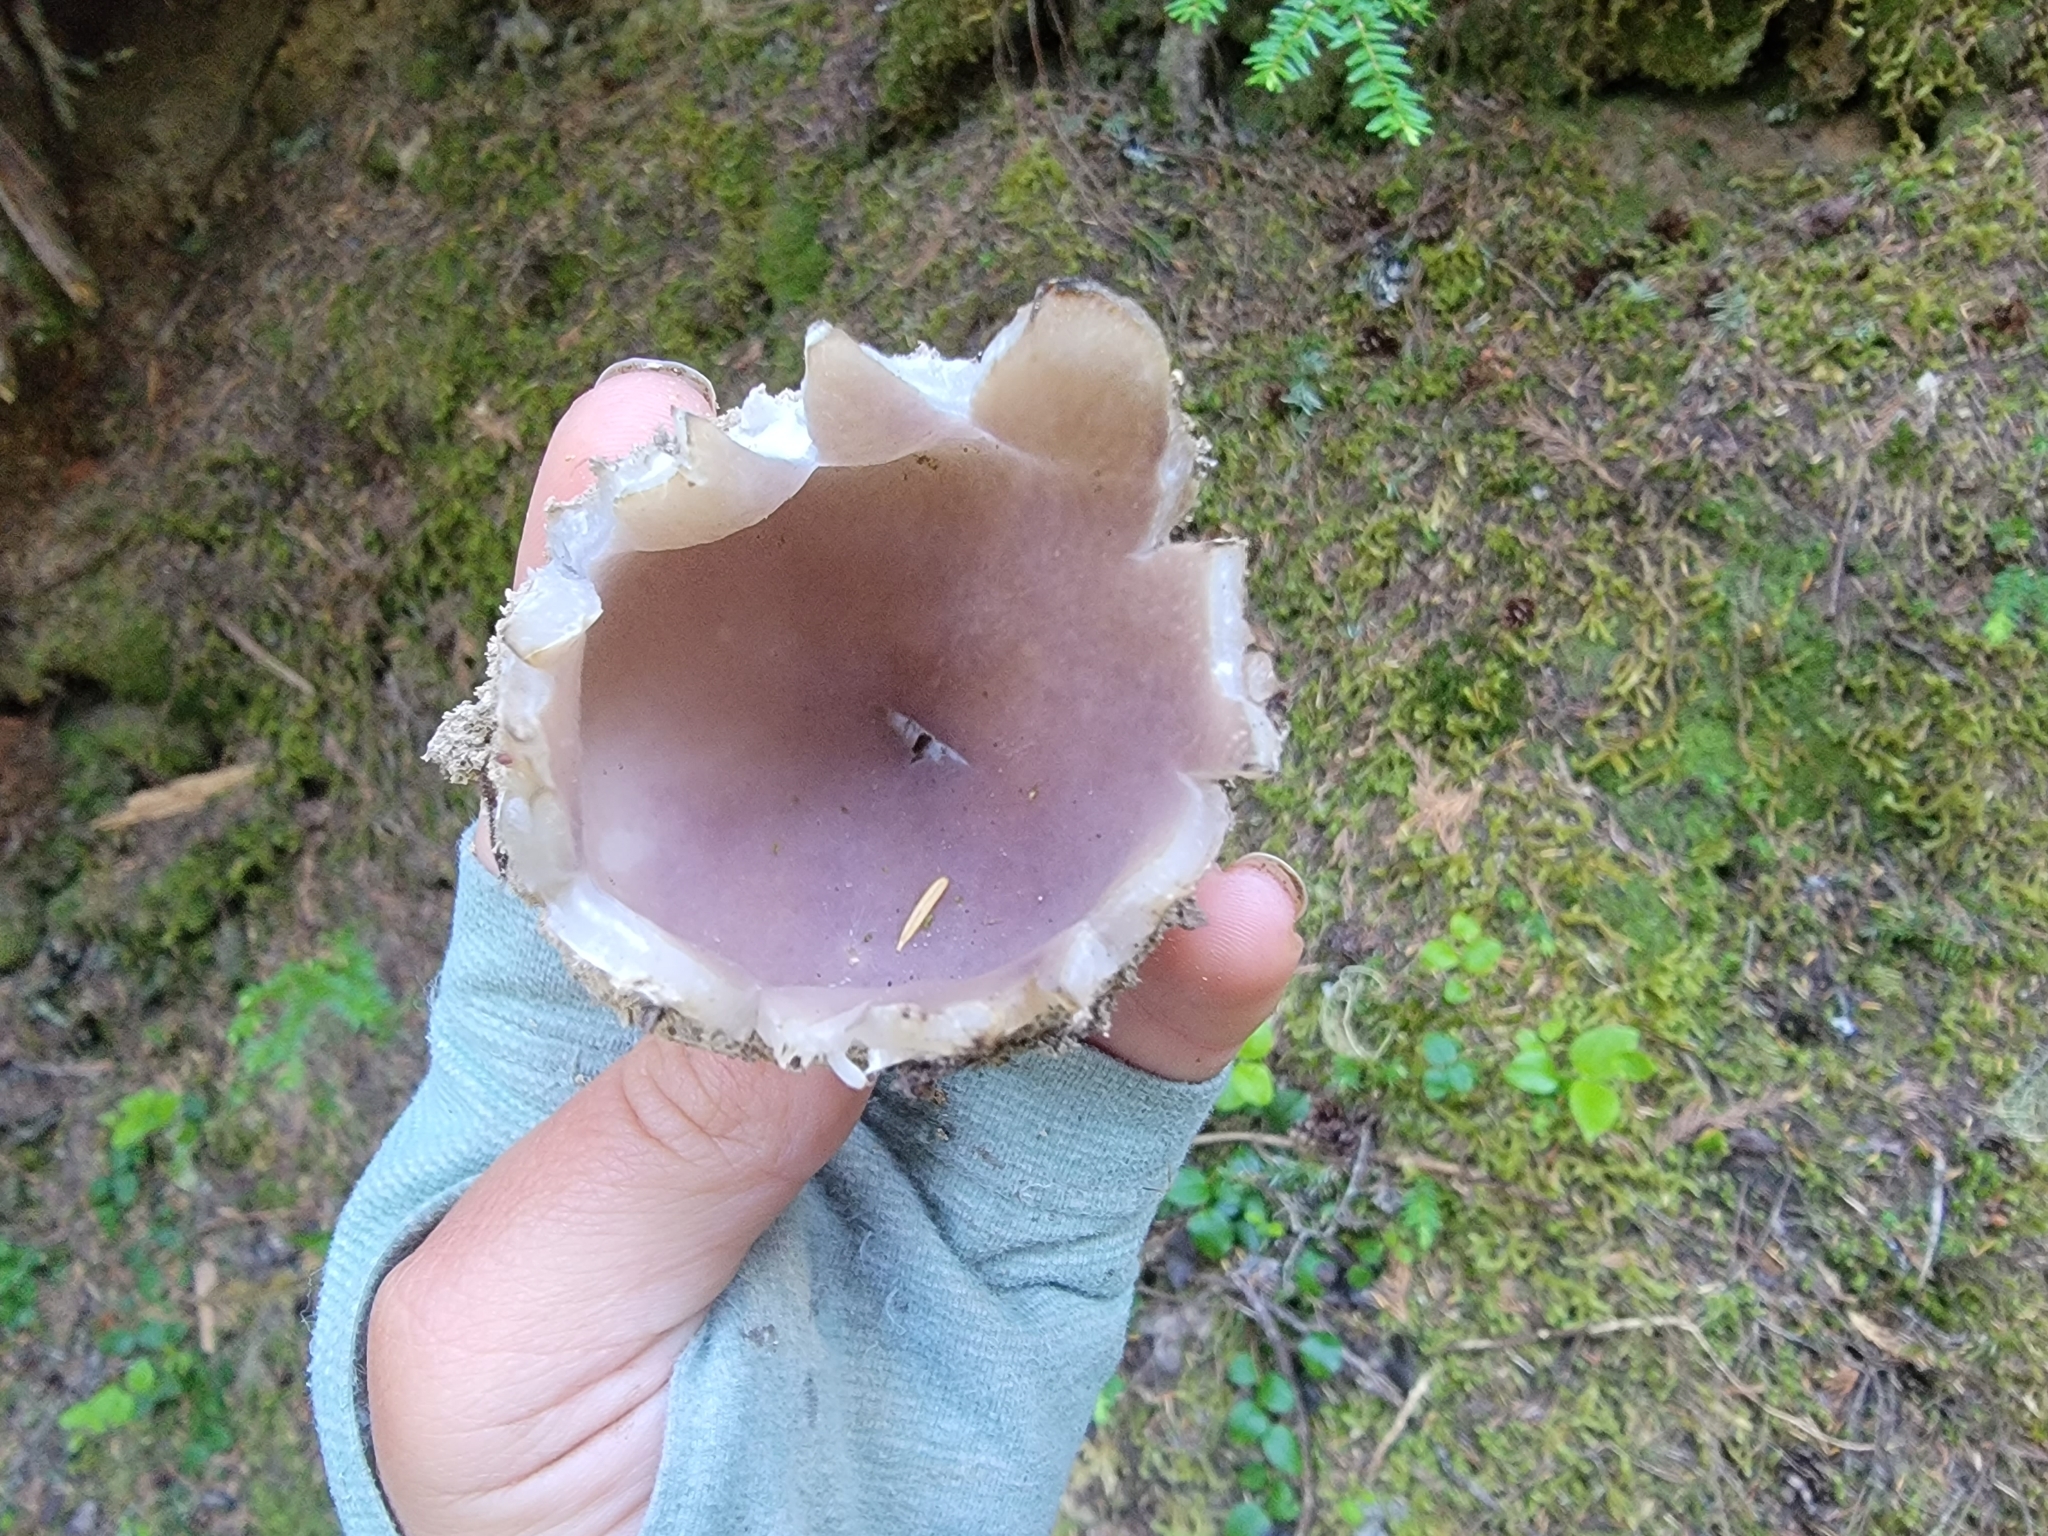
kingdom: Fungi
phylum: Ascomycota
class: Pezizomycetes
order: Pezizales
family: Pezizaceae
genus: Sarcosphaera
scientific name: Sarcosphaera coronaria
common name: Violet crowncup
